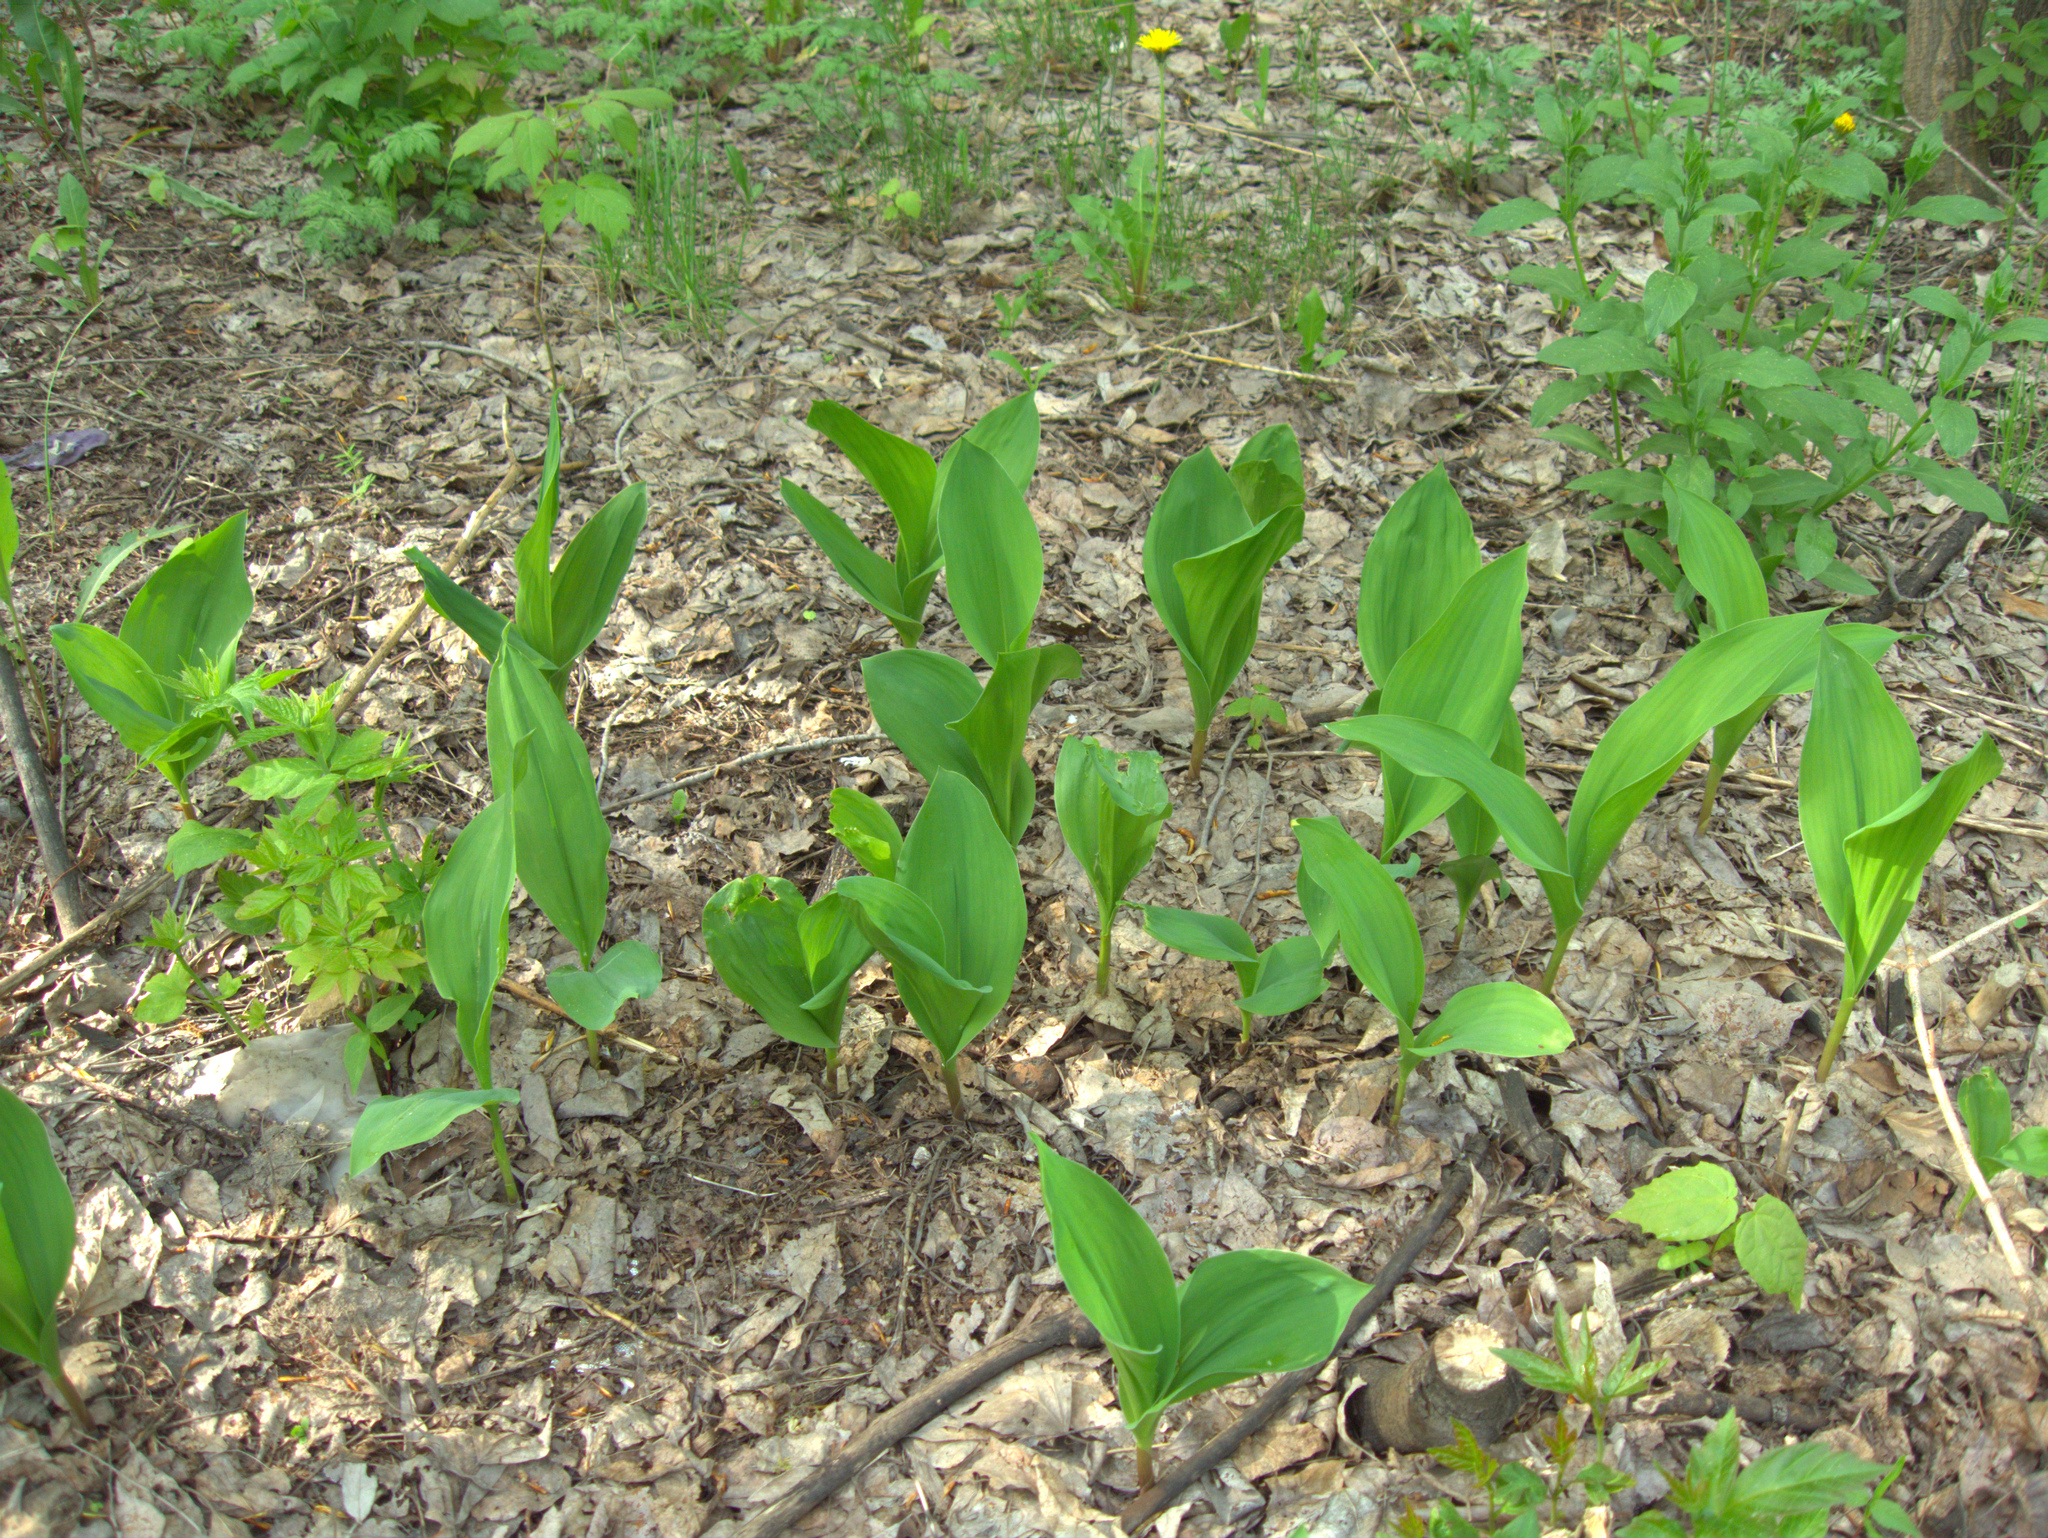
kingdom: Plantae
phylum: Tracheophyta
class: Liliopsida
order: Asparagales
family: Asparagaceae
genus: Convallaria
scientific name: Convallaria majalis
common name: Lily-of-the-valley
